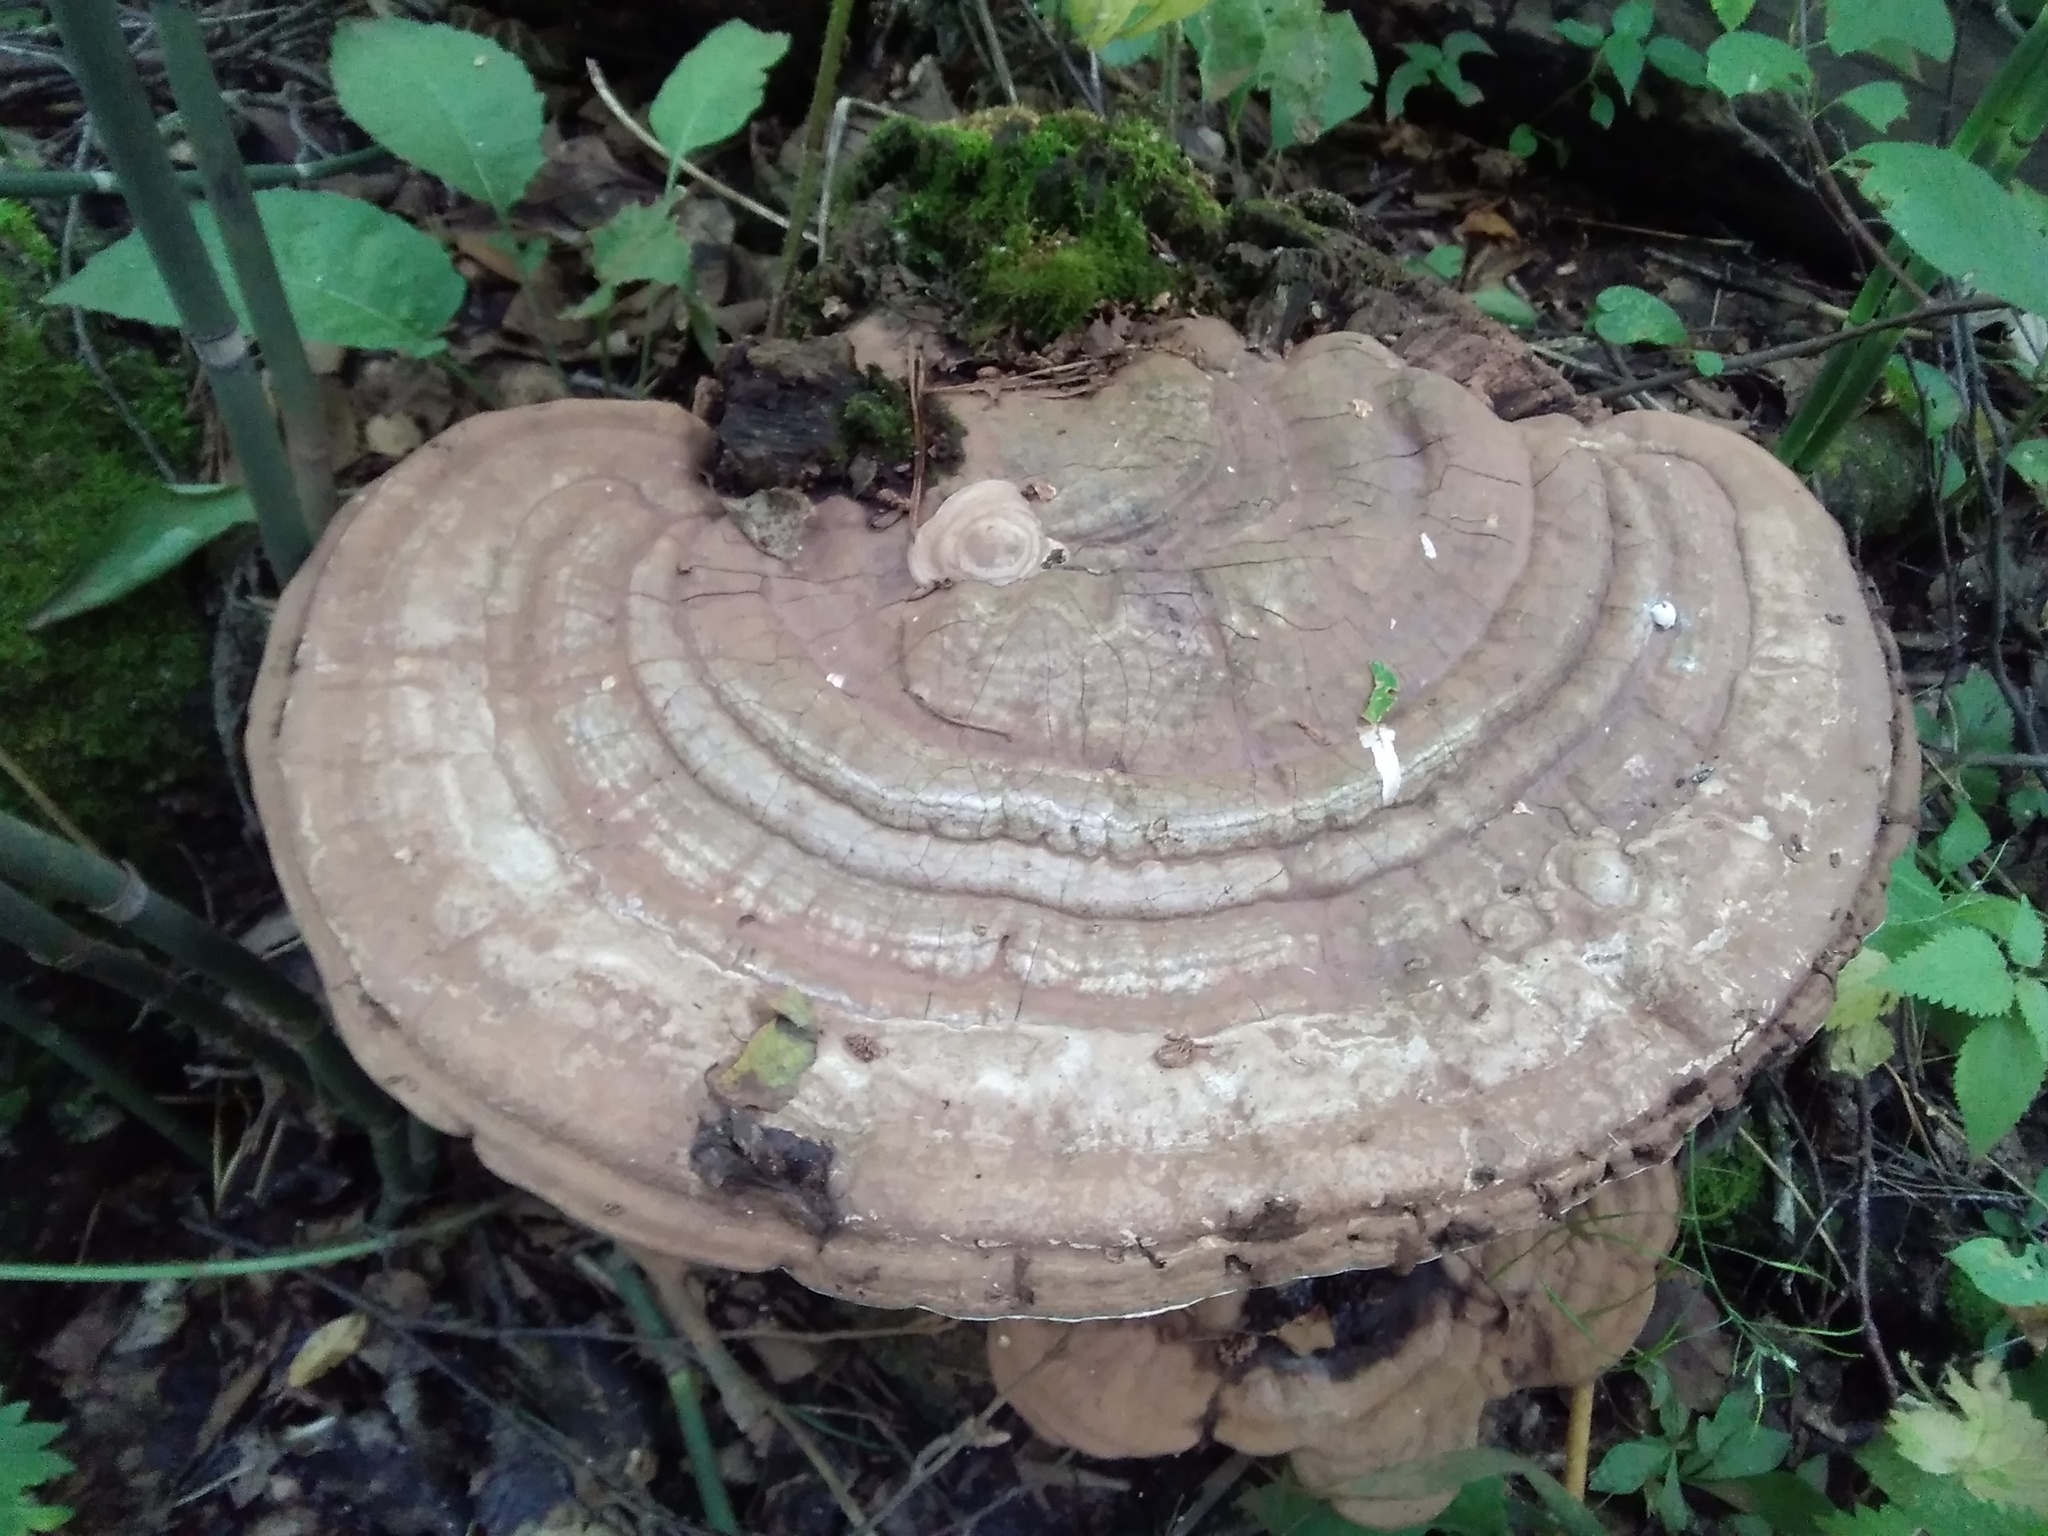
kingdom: Fungi
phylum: Basidiomycota
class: Agaricomycetes
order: Polyporales
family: Polyporaceae
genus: Ganoderma
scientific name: Ganoderma applanatum
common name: Artist's bracket
